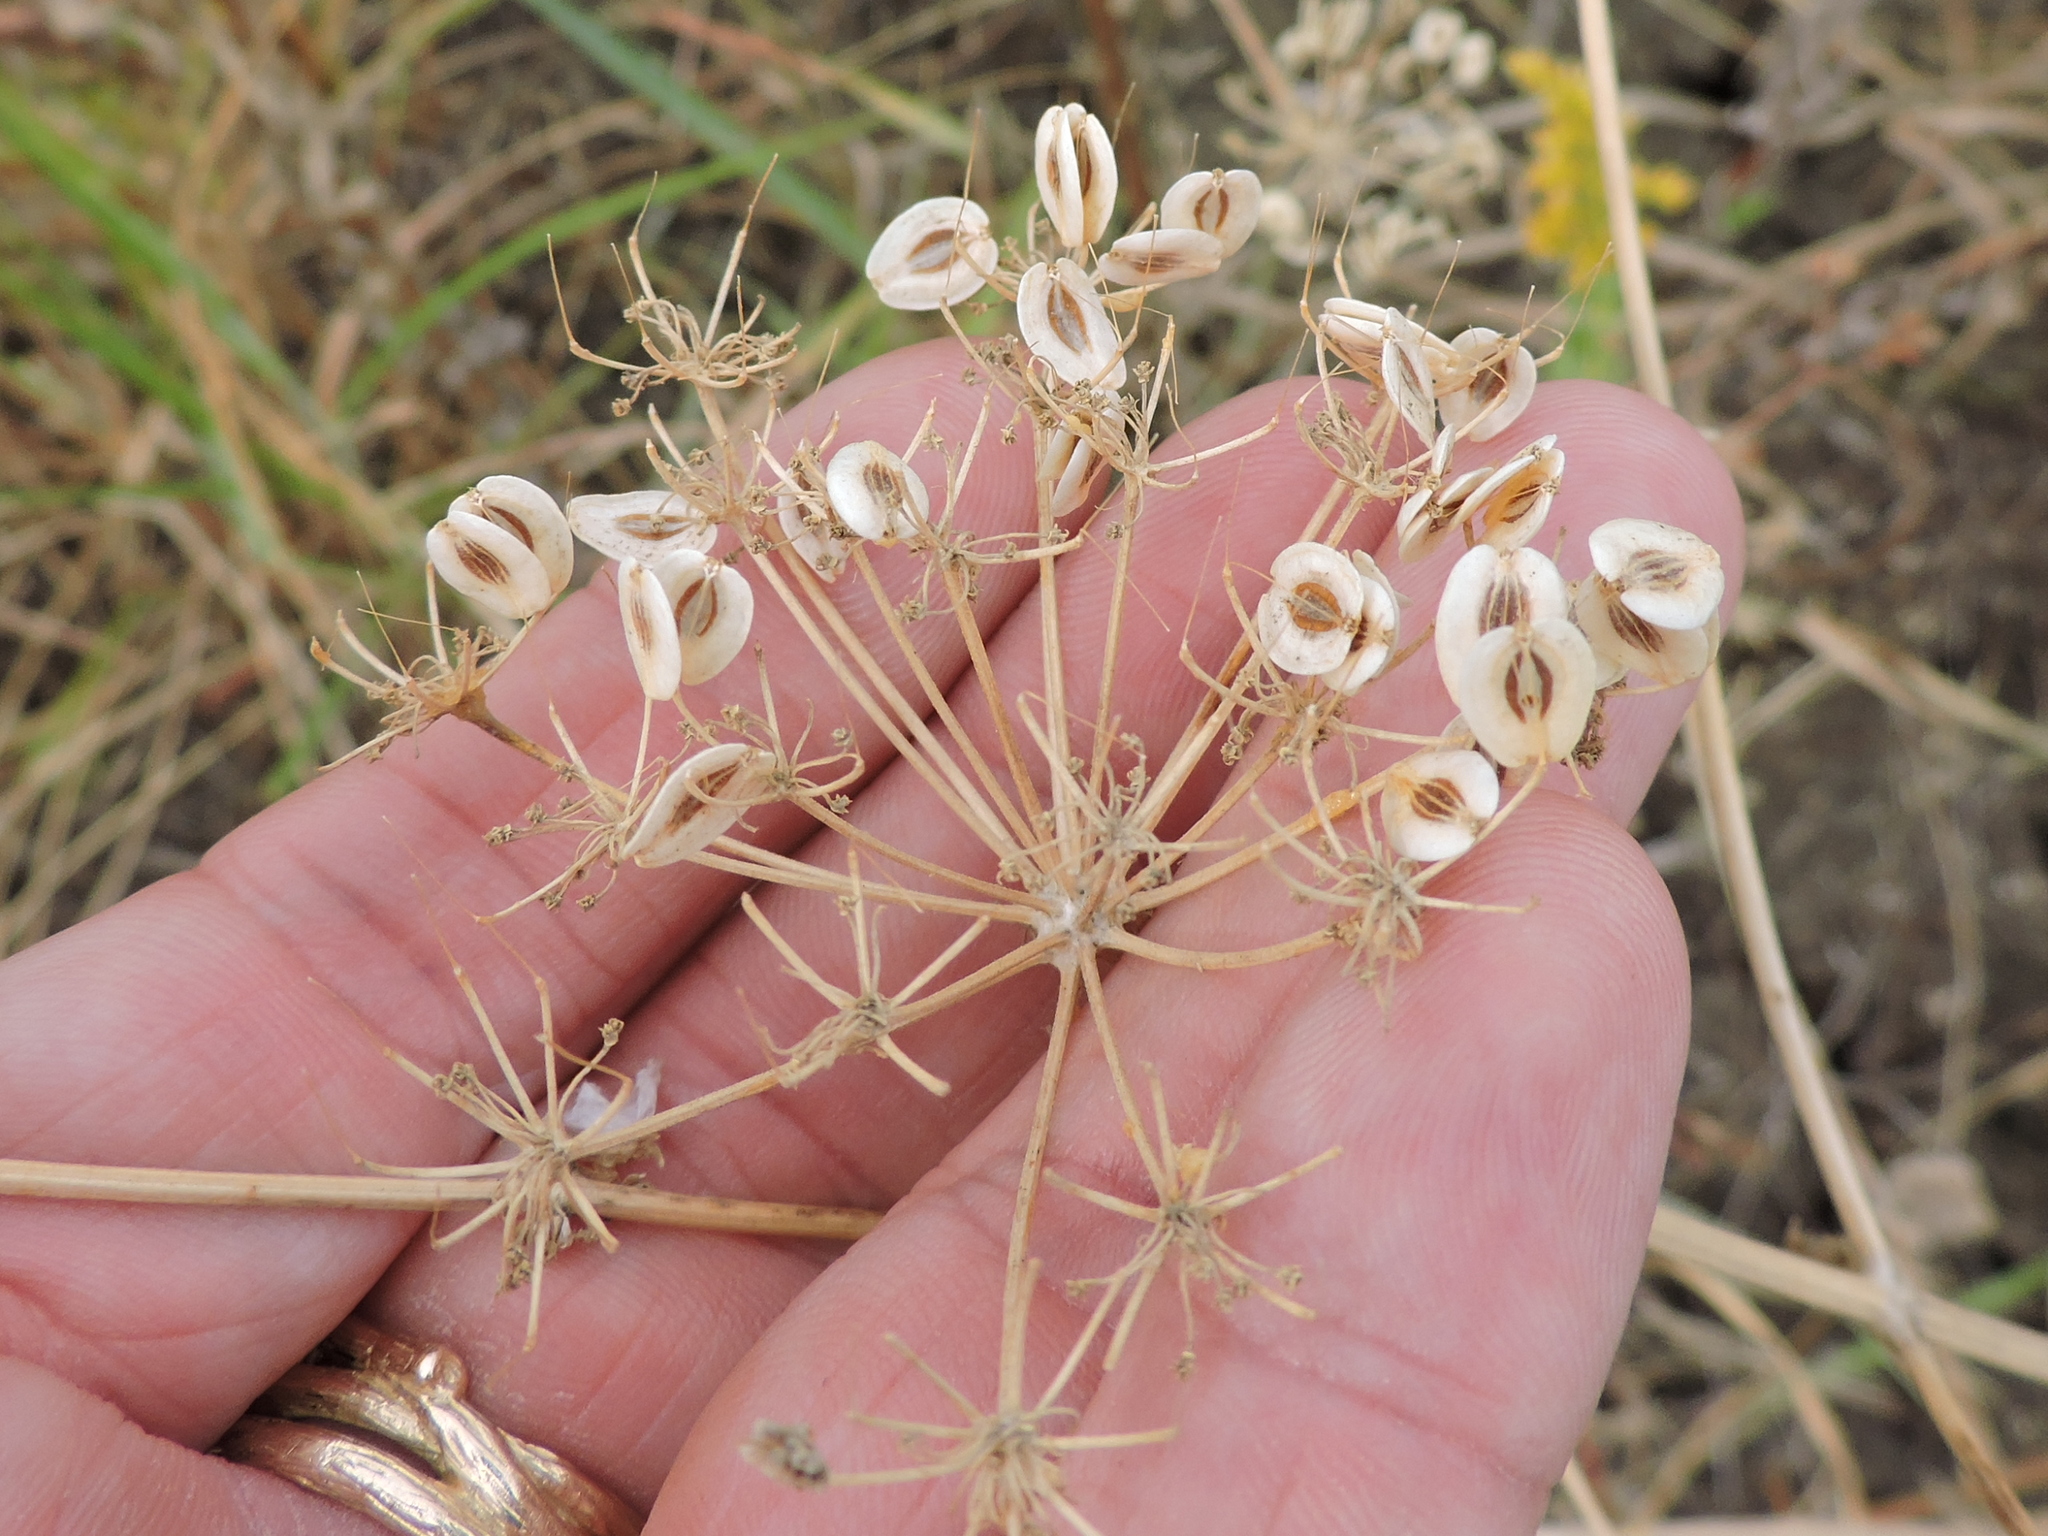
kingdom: Plantae
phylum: Tracheophyta
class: Magnoliopsida
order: Apiales
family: Apiaceae
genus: Polytaenia
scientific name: Polytaenia texana
